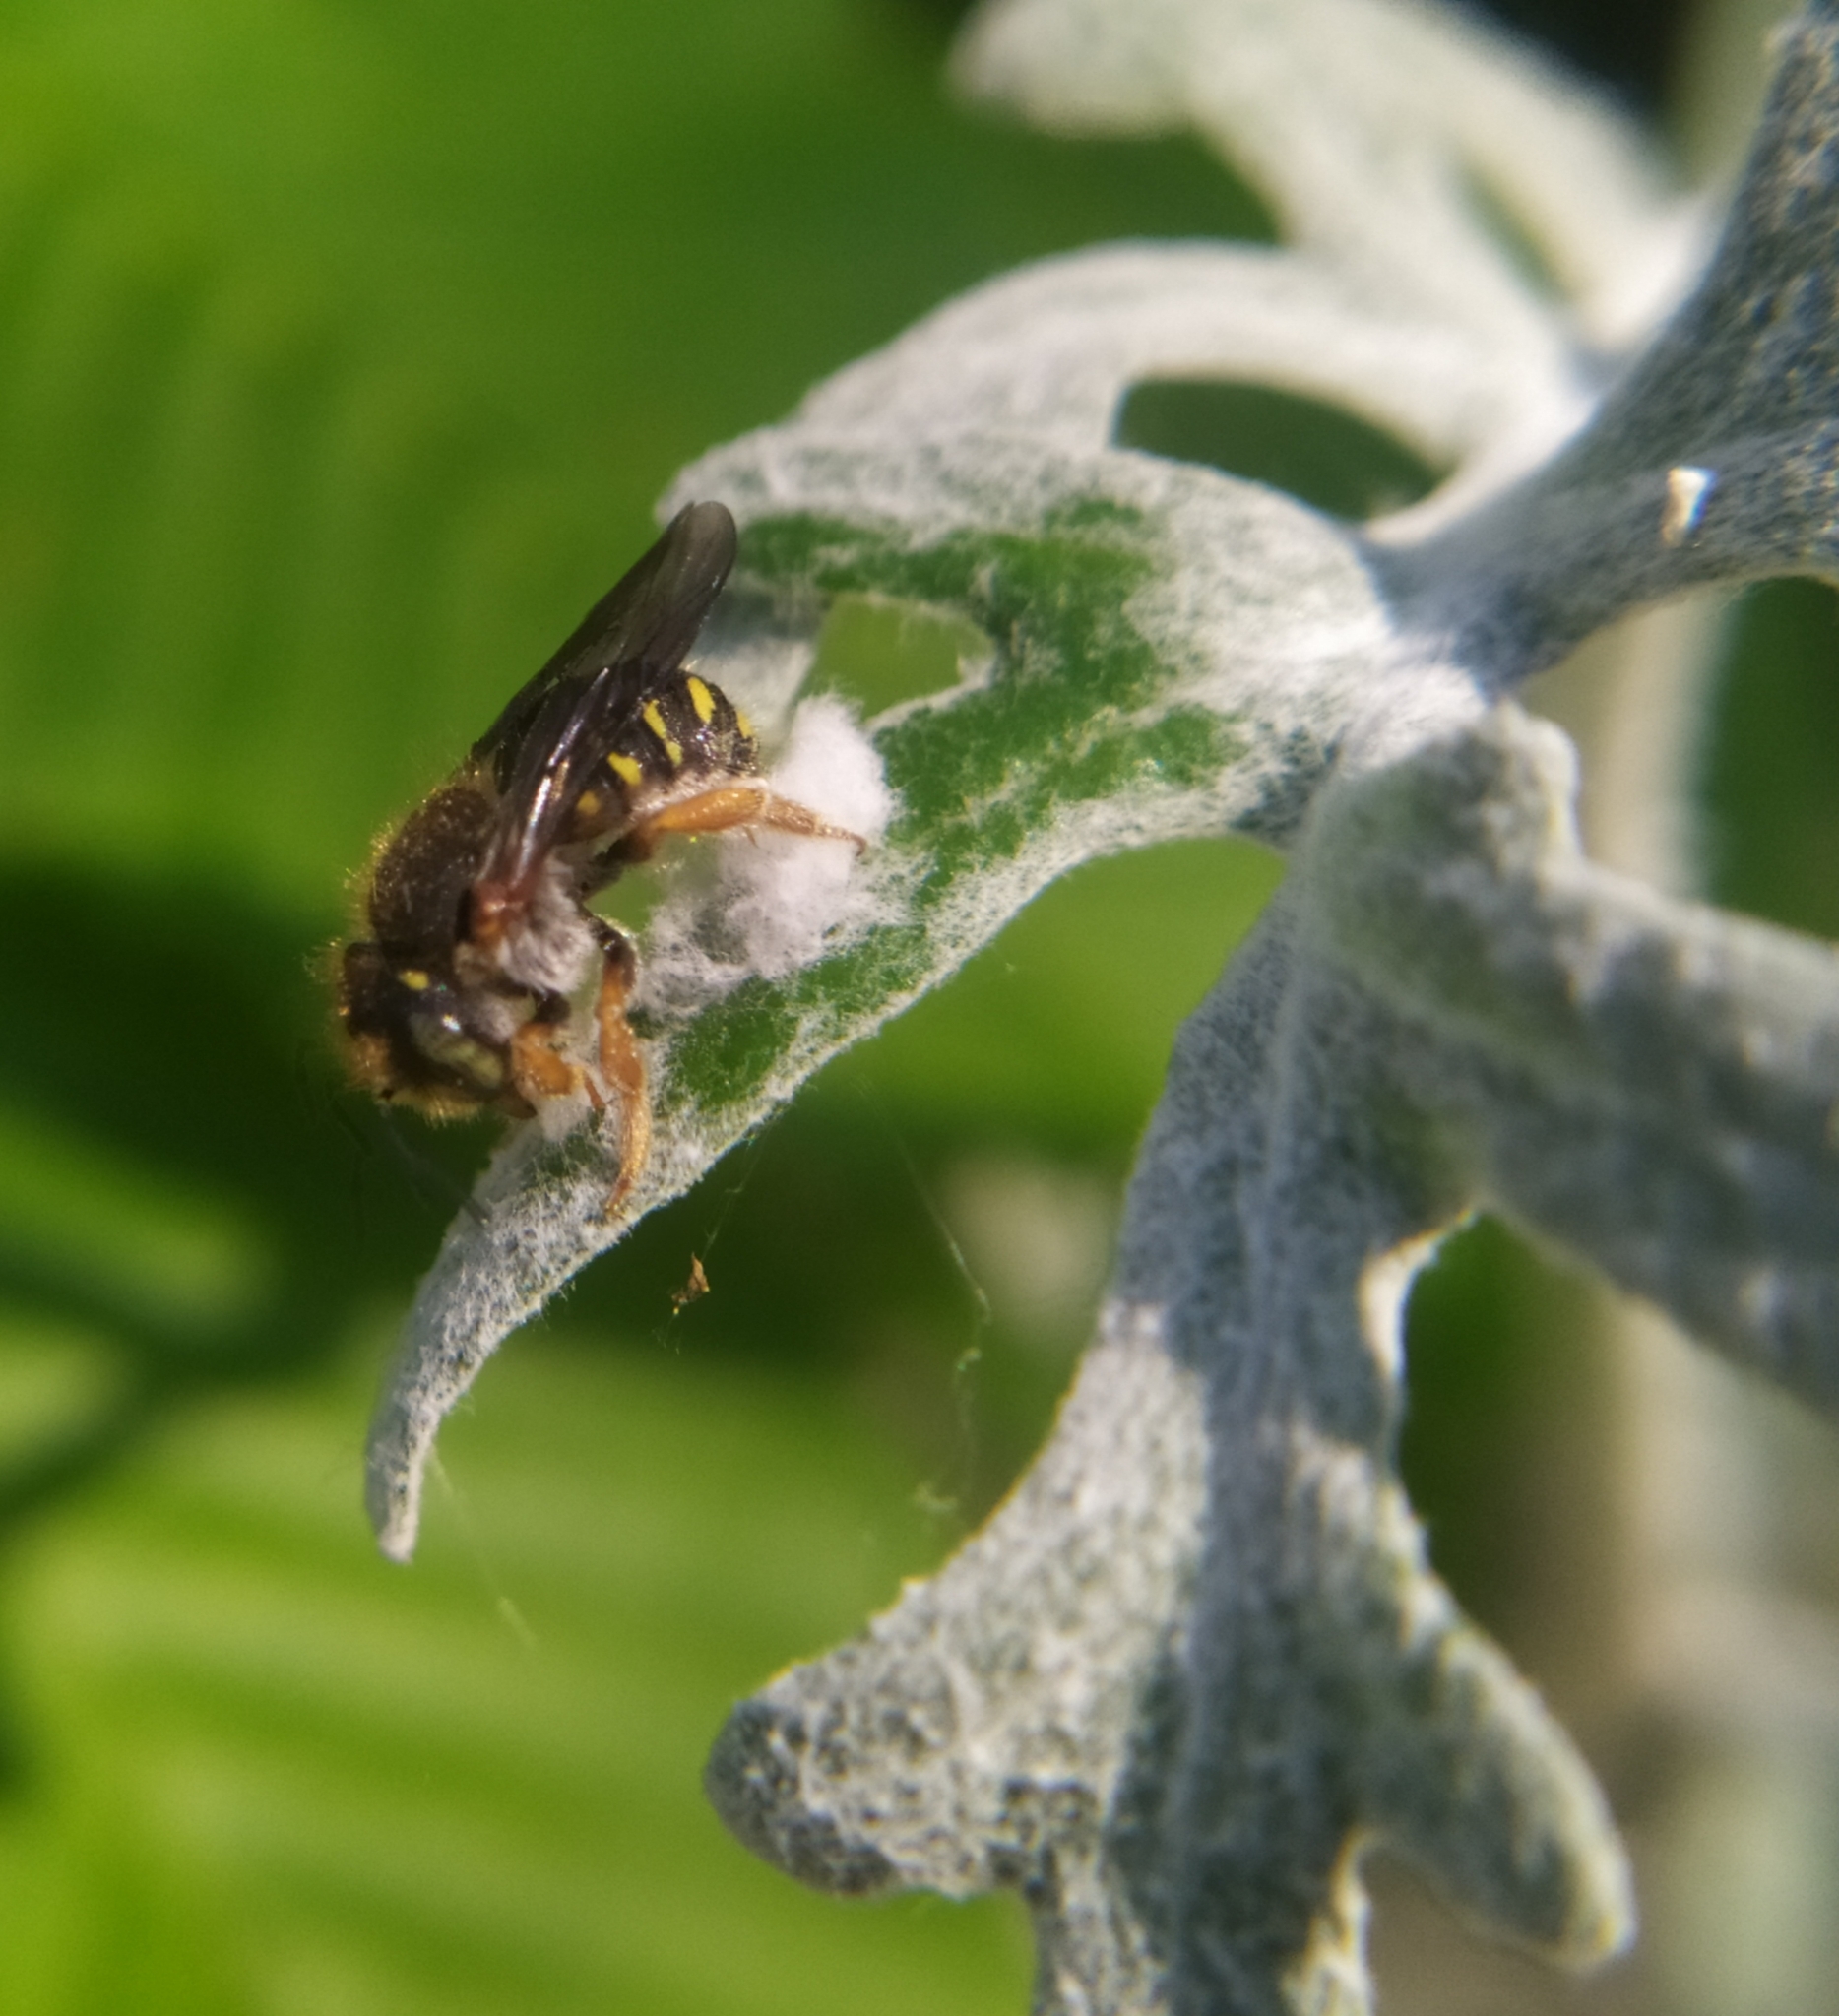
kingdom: Animalia
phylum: Arthropoda
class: Insecta
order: Hymenoptera
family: Megachilidae
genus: Anthidium
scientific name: Anthidium oblongatum
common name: Oblong wool carder bee
